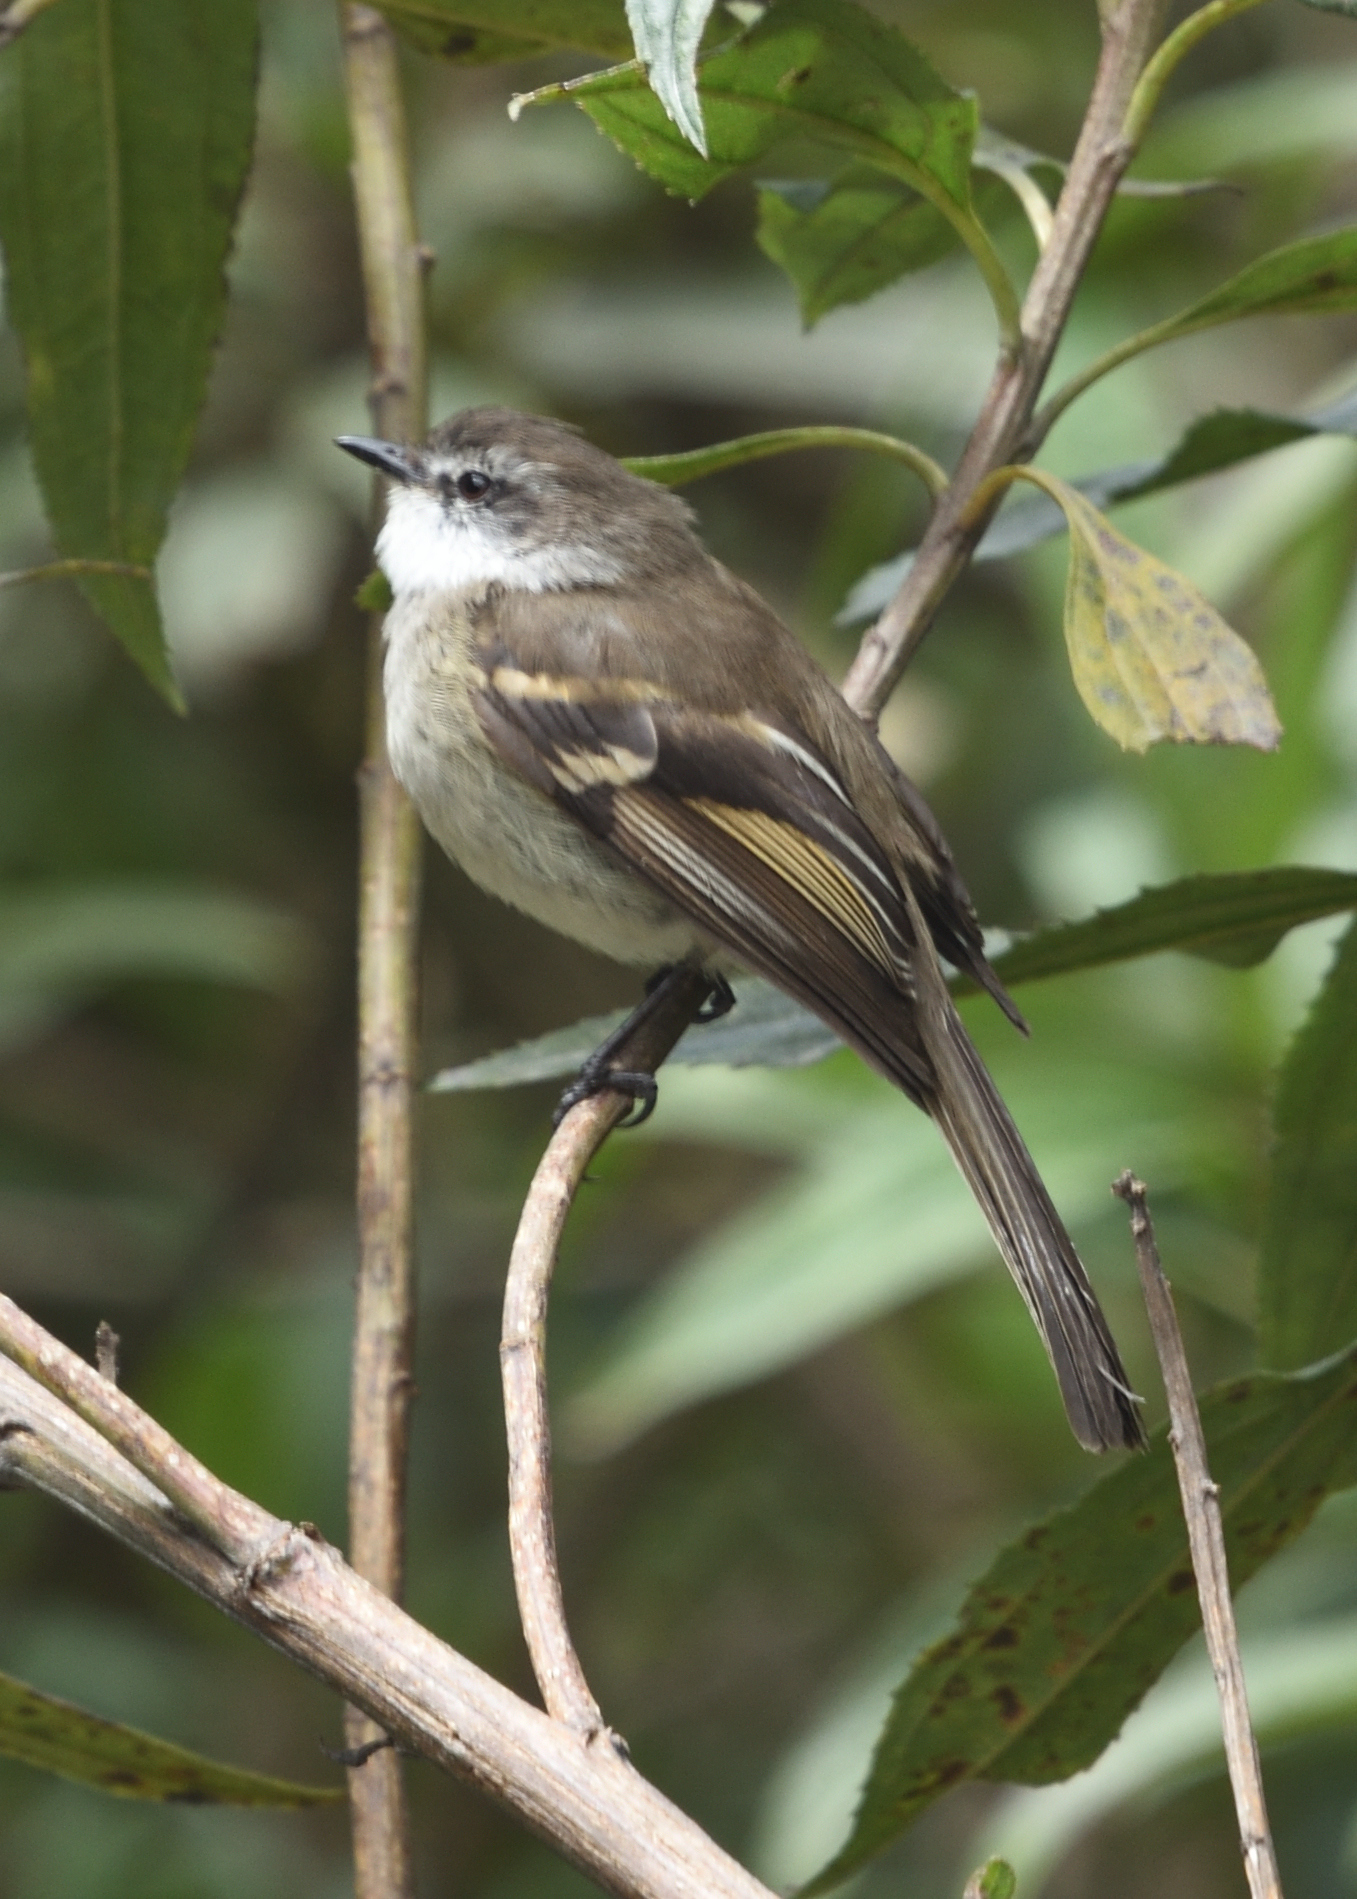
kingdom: Animalia
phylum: Chordata
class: Aves
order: Passeriformes
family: Tyrannidae
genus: Mecocerculus
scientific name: Mecocerculus leucophrys
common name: White-throated tyrannulet
